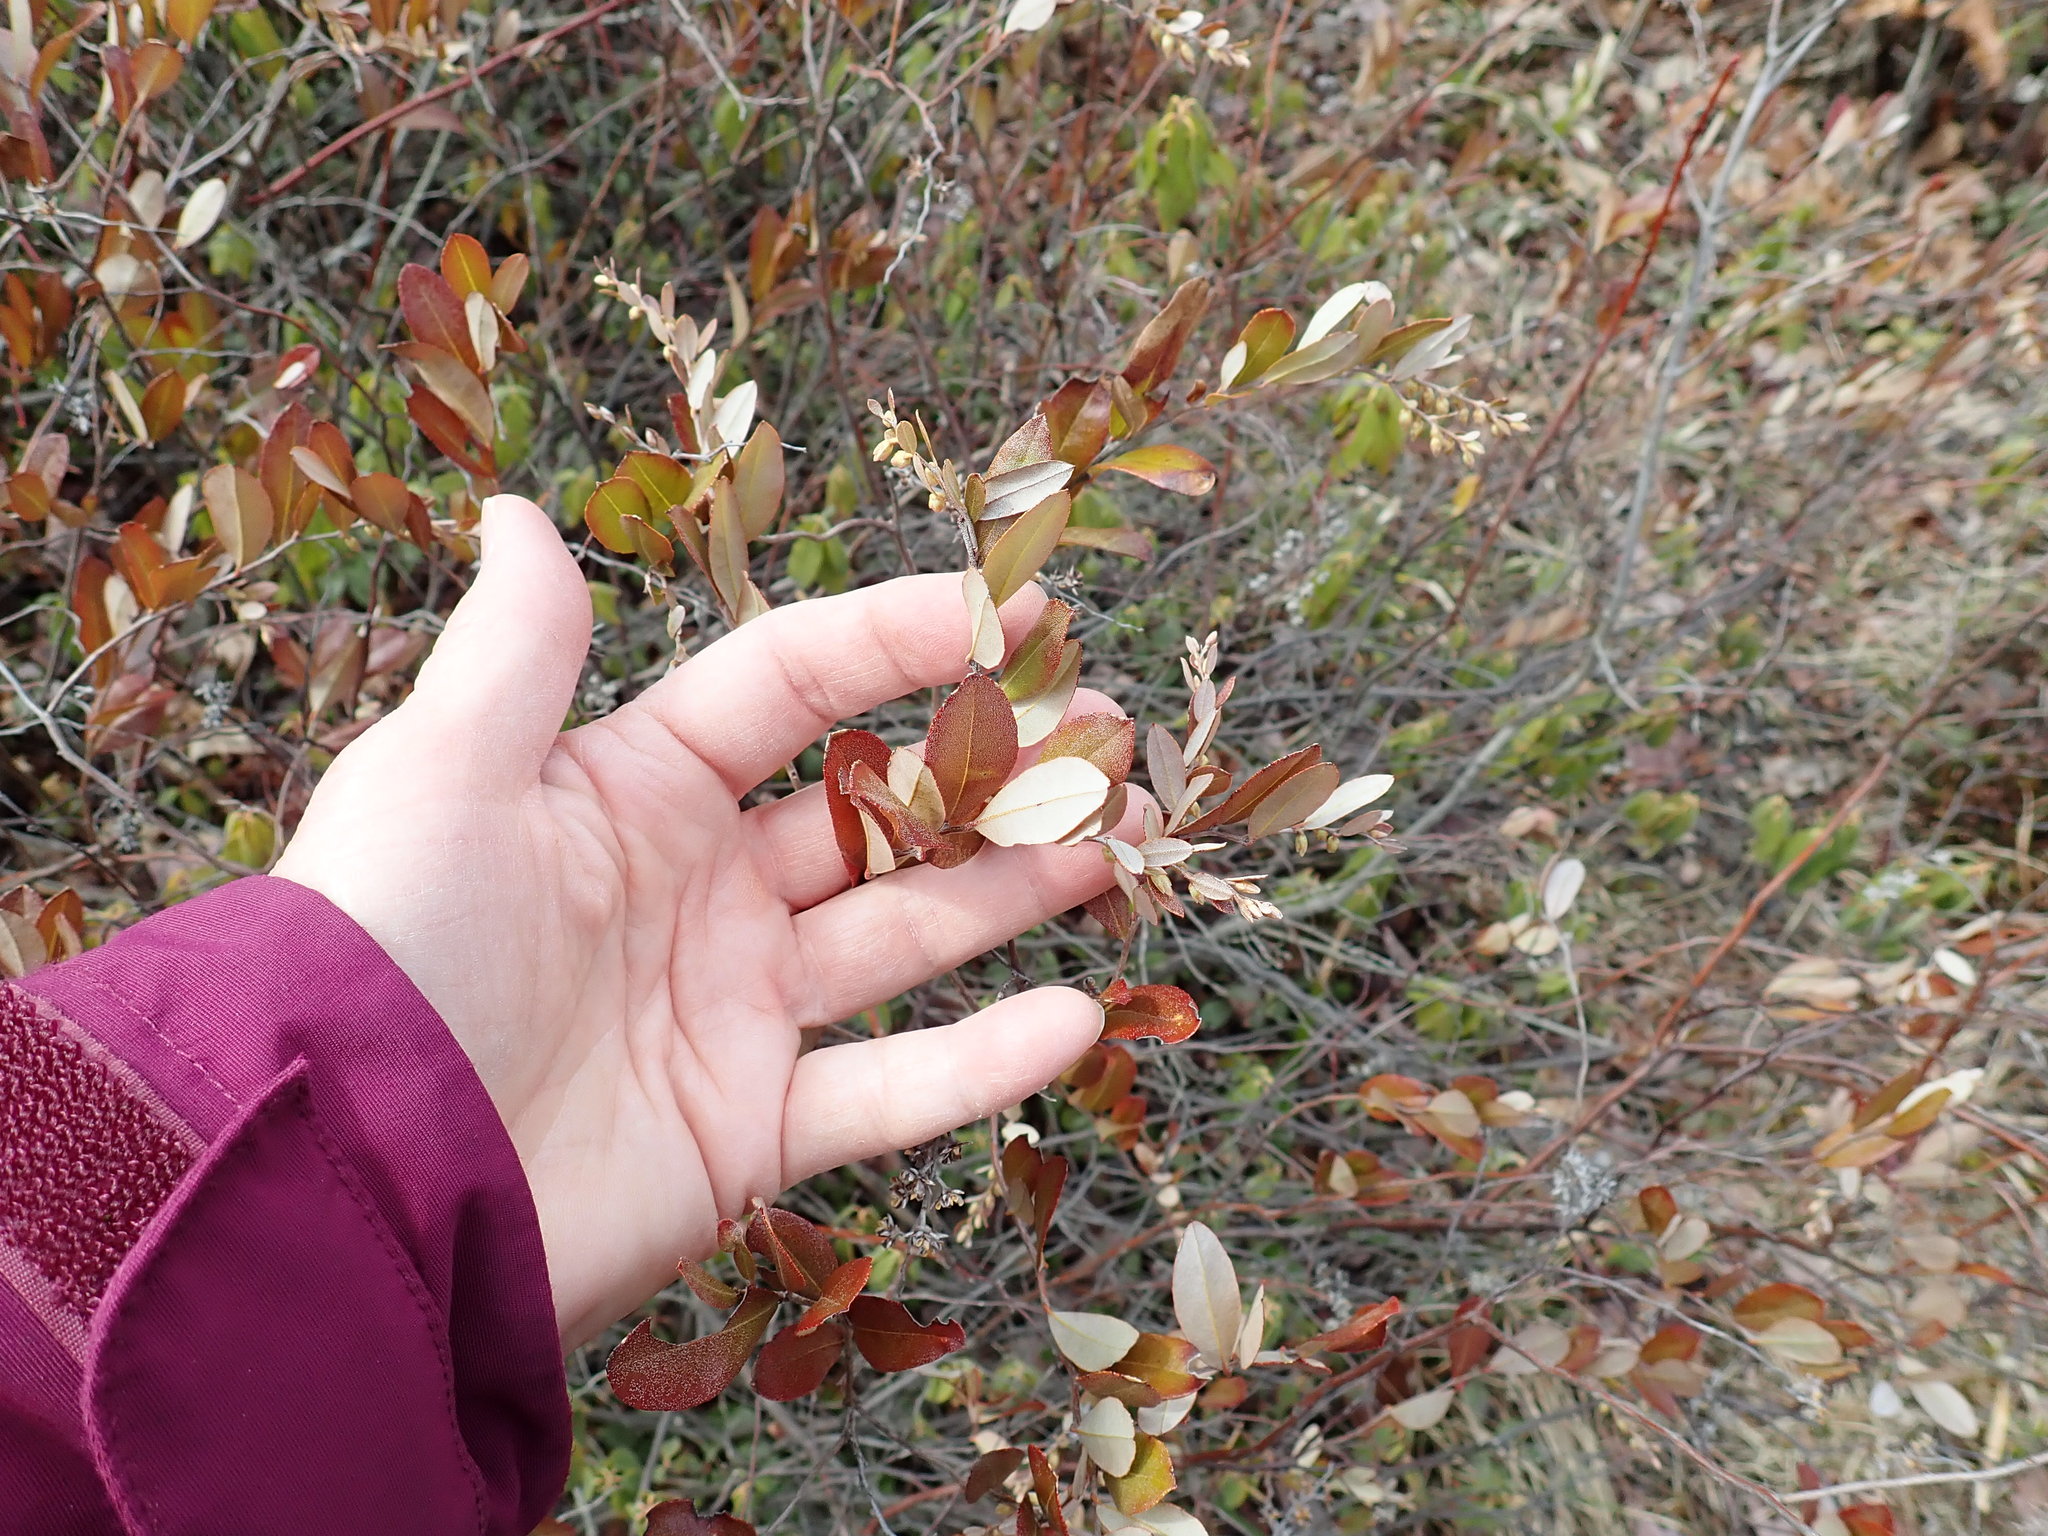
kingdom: Plantae
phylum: Tracheophyta
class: Magnoliopsida
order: Ericales
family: Ericaceae
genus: Chamaedaphne
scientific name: Chamaedaphne calyculata
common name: Leatherleaf
